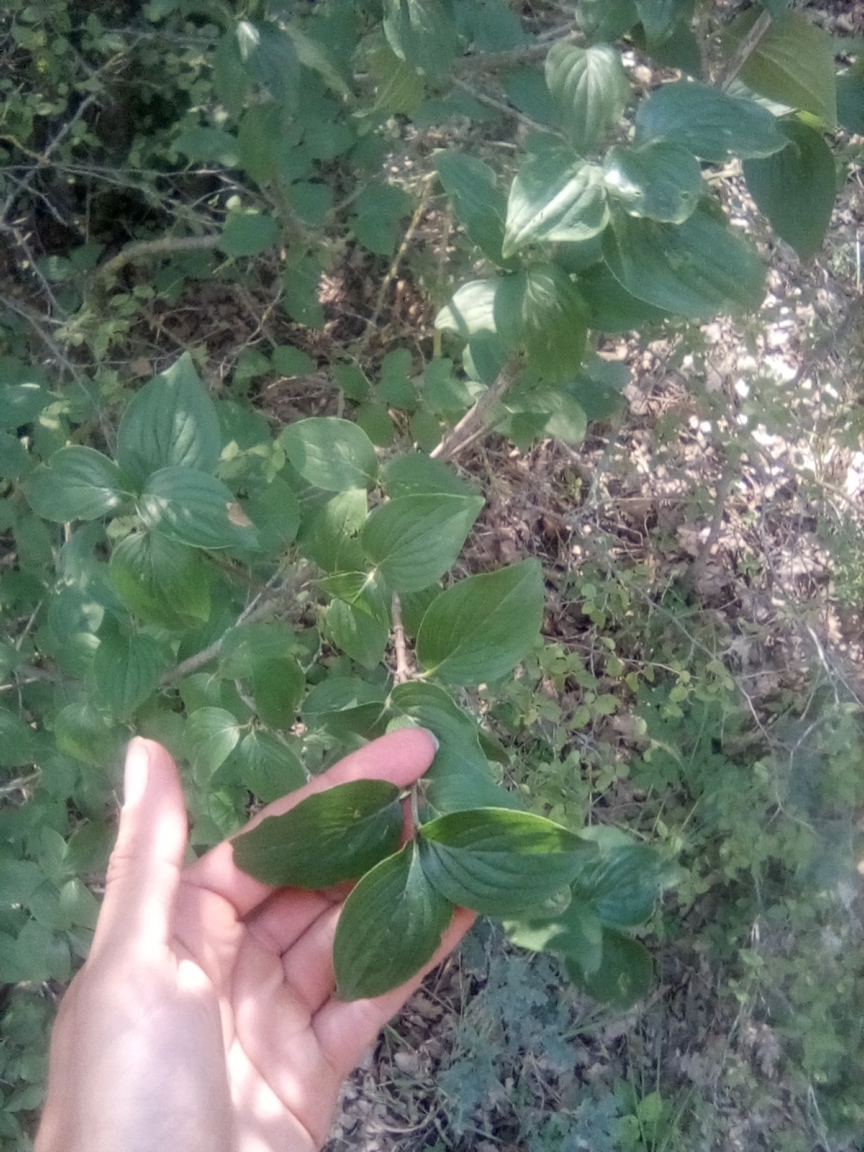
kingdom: Plantae
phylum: Tracheophyta
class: Magnoliopsida
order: Cornales
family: Cornaceae
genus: Cornus
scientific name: Cornus mas
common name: Cornelian-cherry
